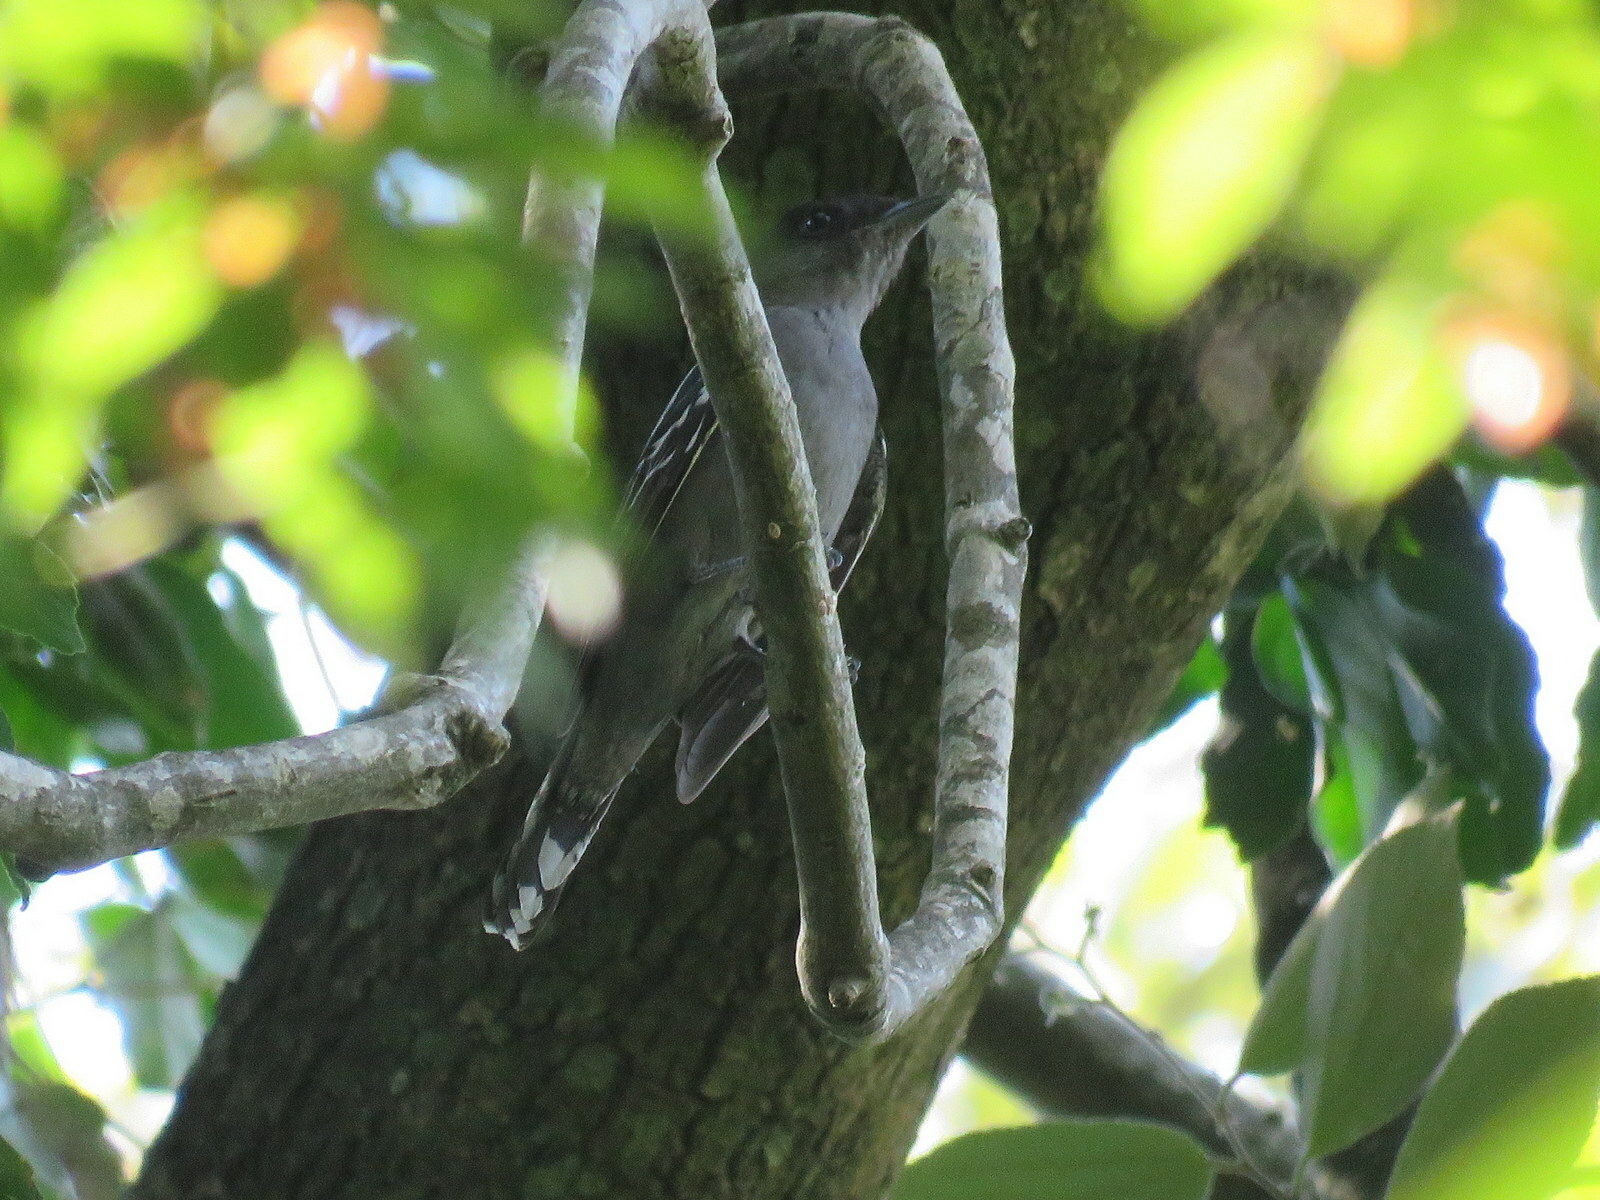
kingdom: Animalia
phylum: Chordata
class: Aves
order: Passeriformes
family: Cotingidae
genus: Pachyramphus
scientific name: Pachyramphus polychopterus
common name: White-winged becard
